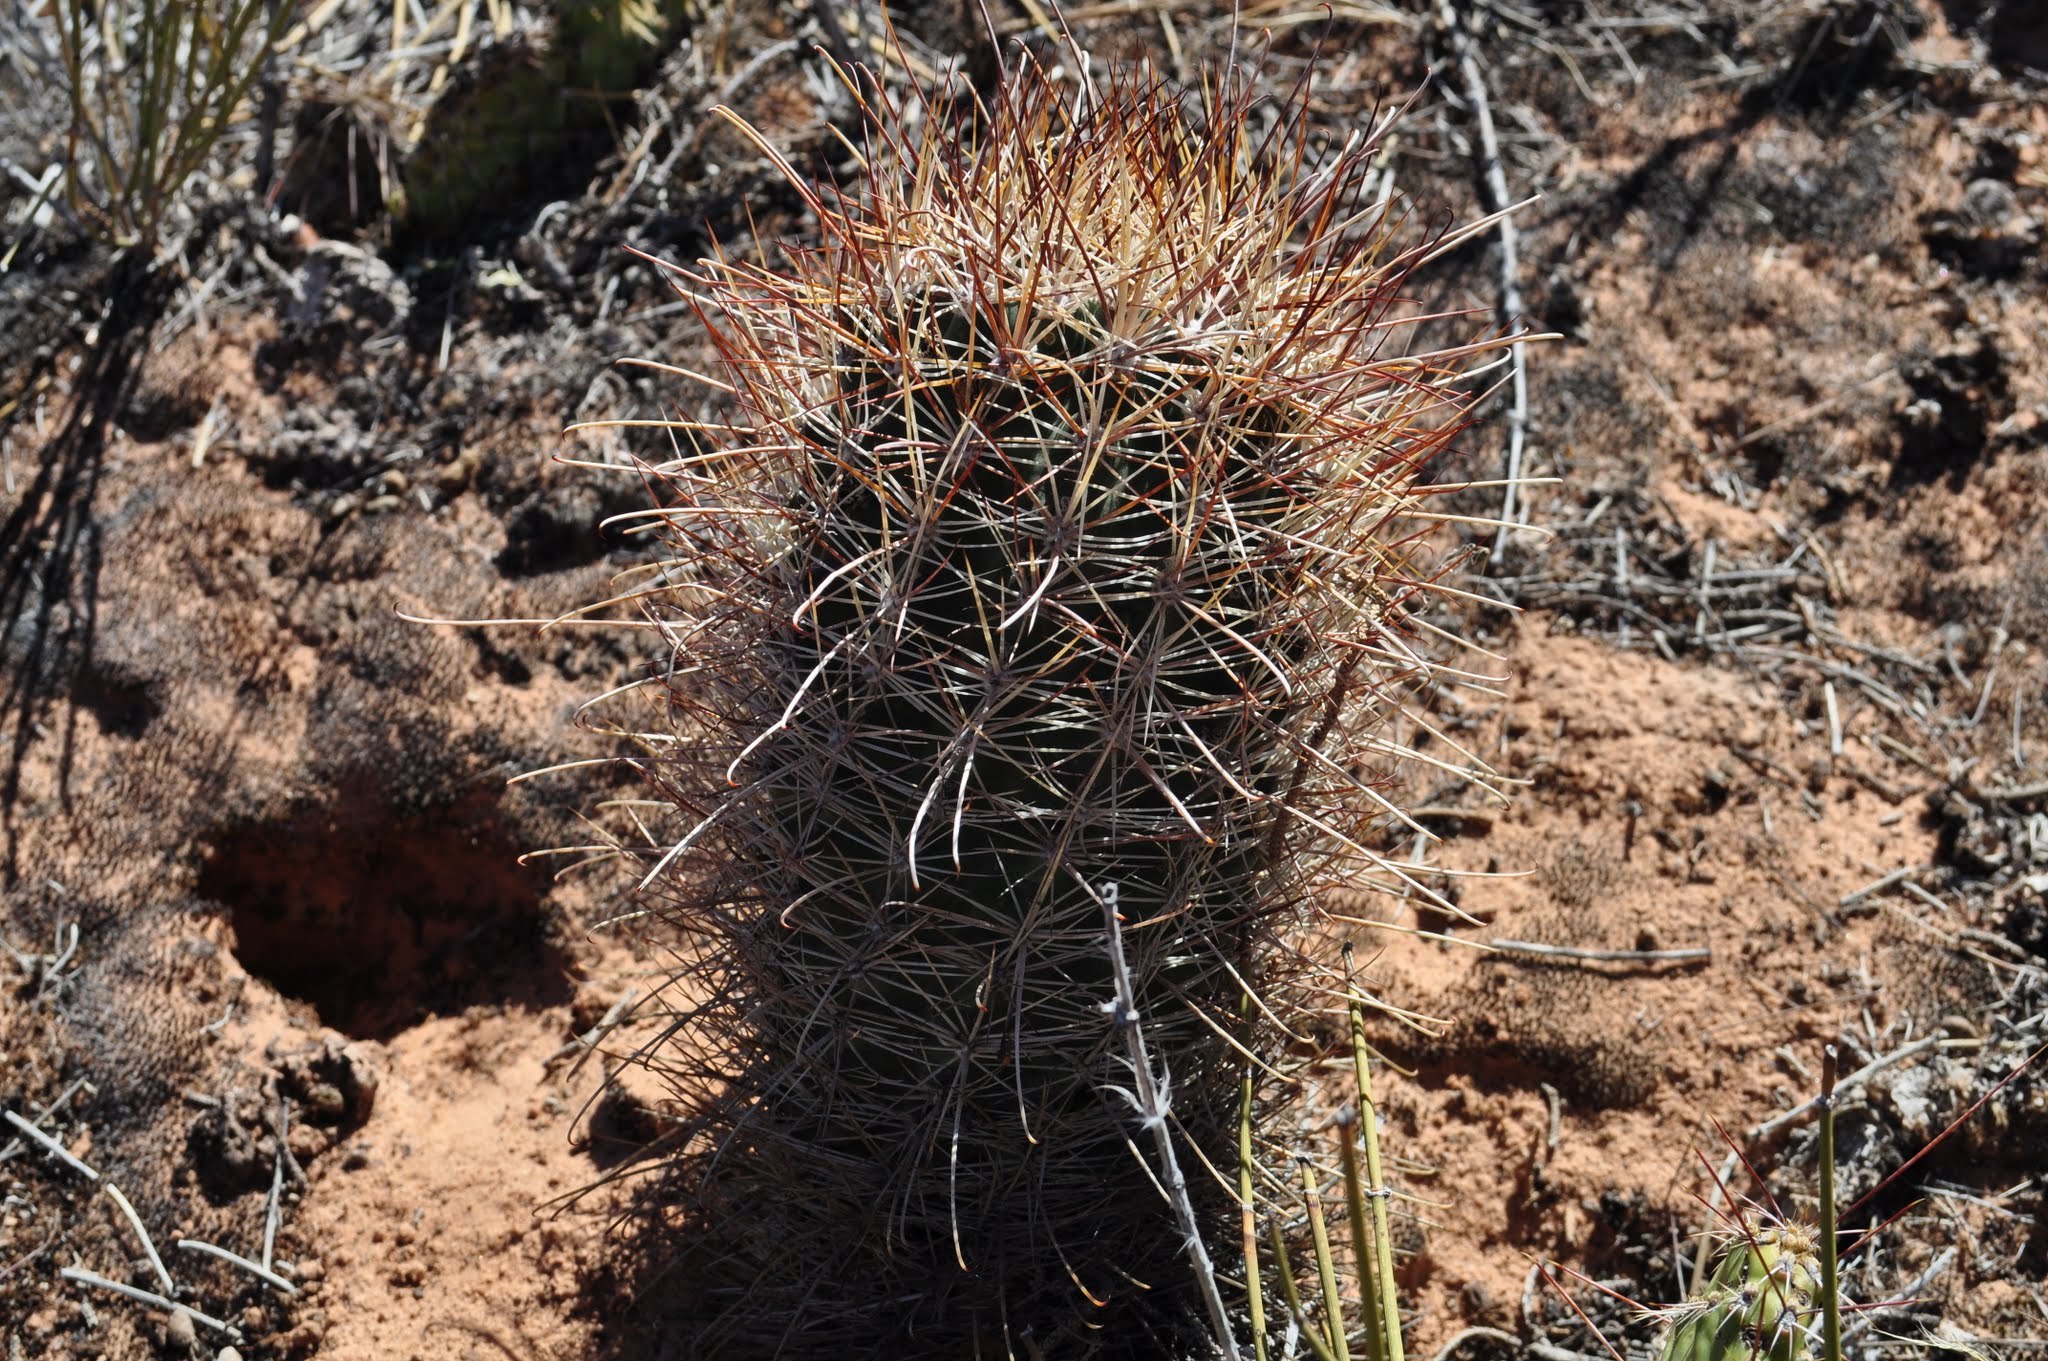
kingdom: Plantae
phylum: Tracheophyta
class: Magnoliopsida
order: Caryophyllales
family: Cactaceae
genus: Sclerocactus
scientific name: Sclerocactus parviflorus
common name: Small-flower fishhook cactus
